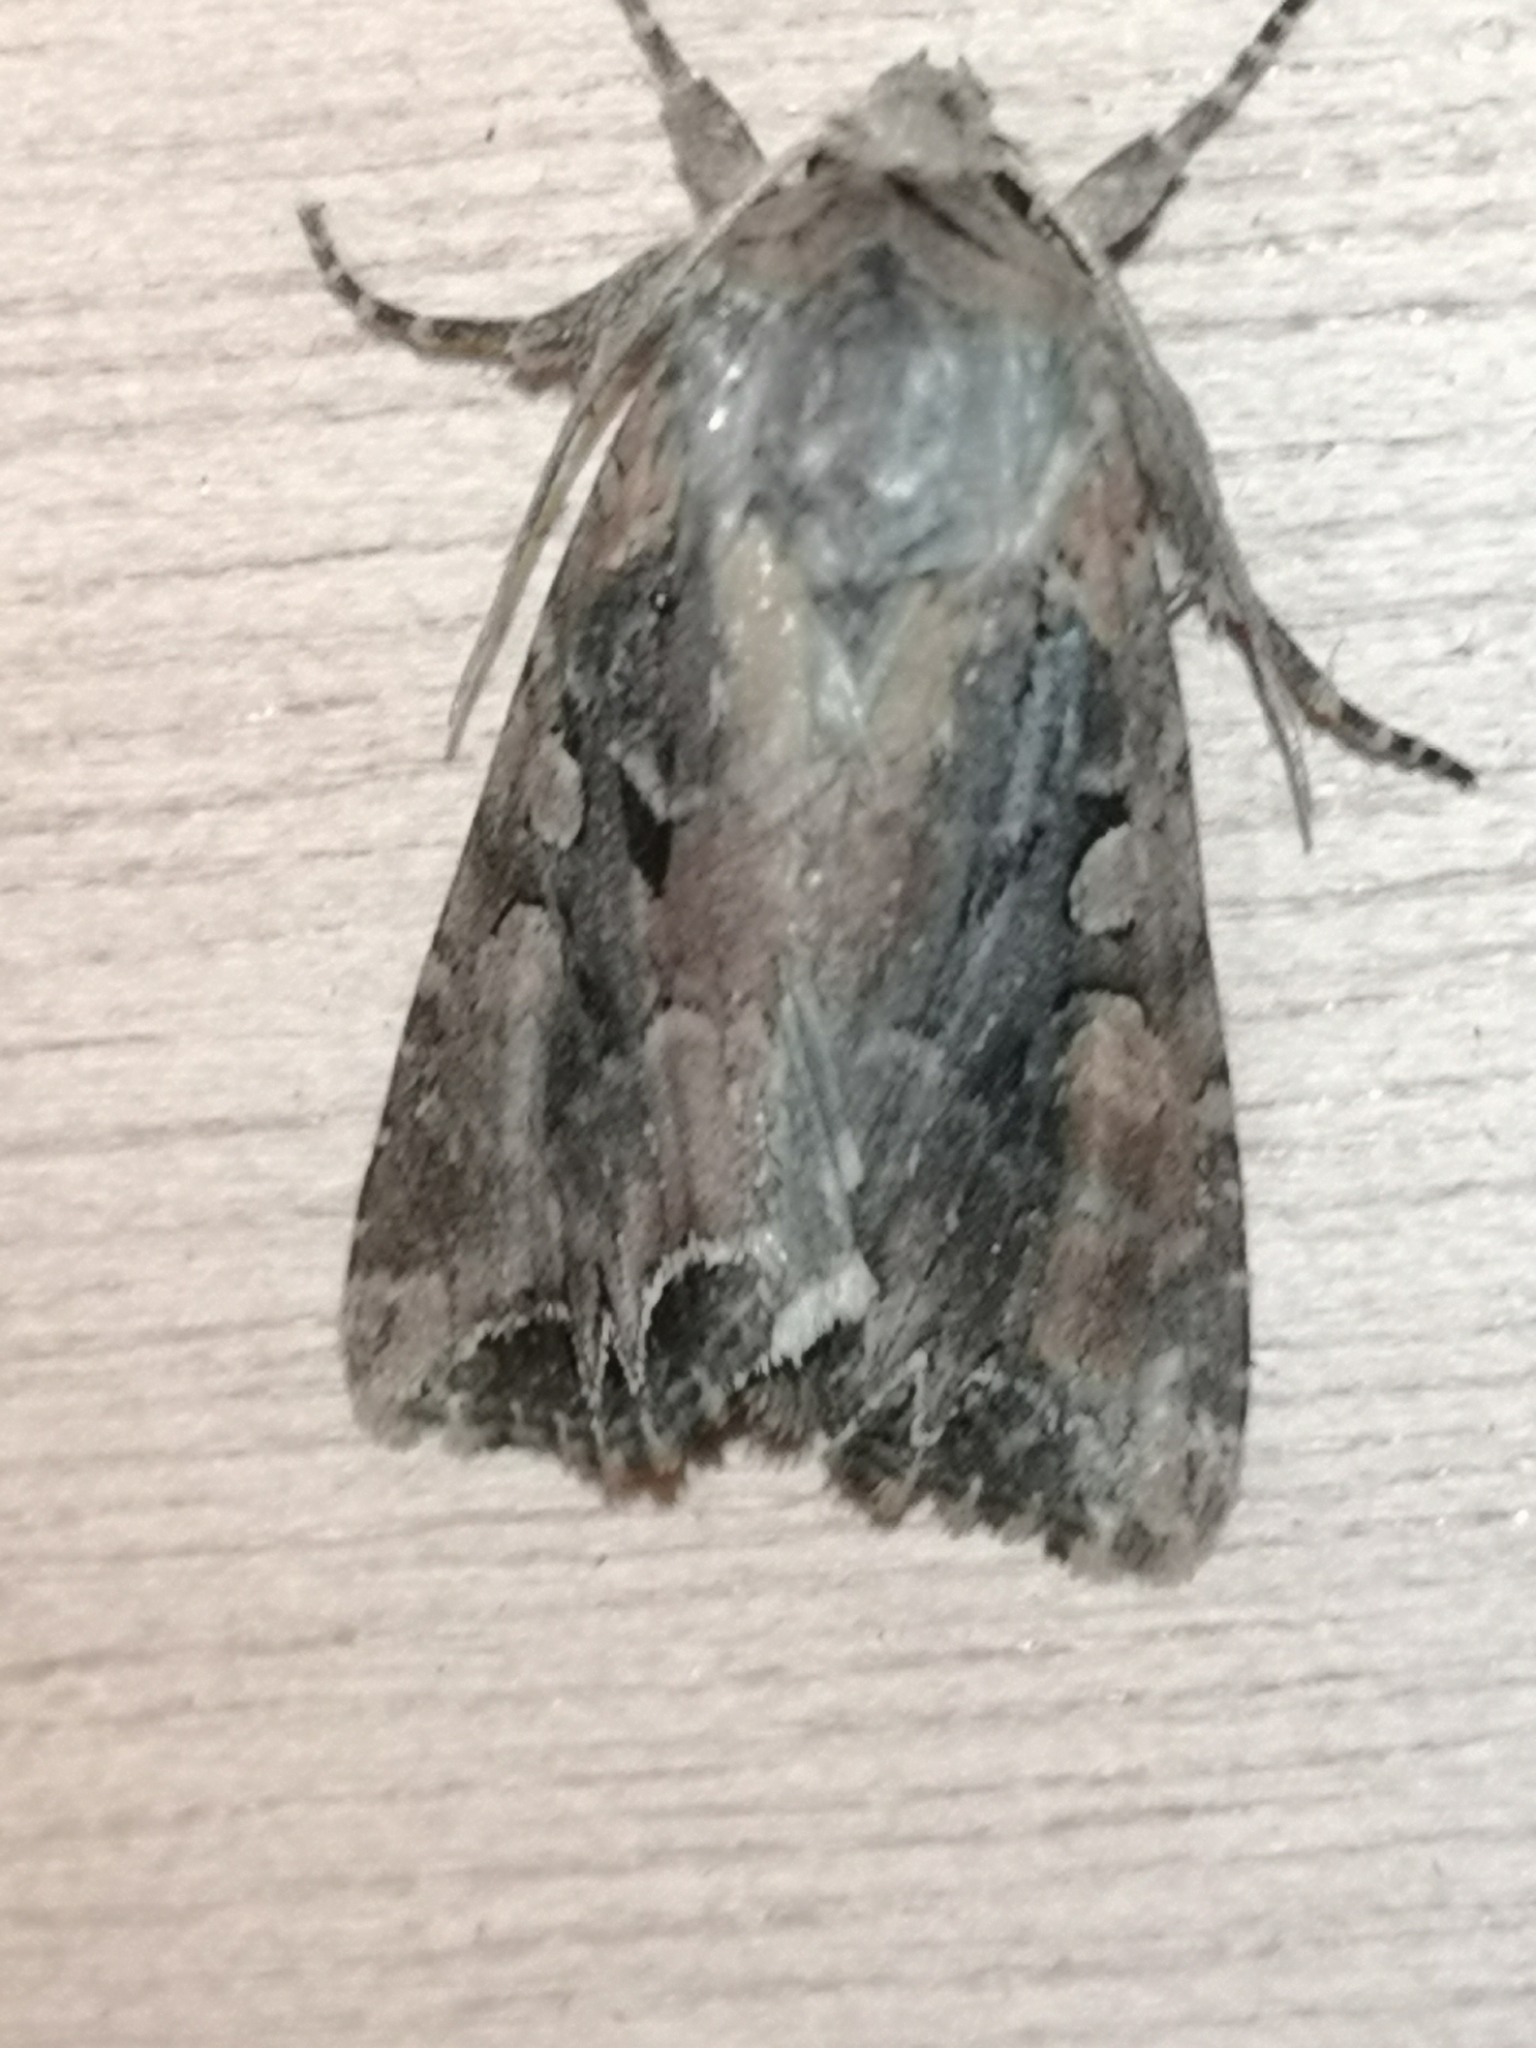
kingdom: Animalia
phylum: Arthropoda
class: Insecta
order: Lepidoptera
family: Noctuidae
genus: Lacanobia
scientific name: Lacanobia suasa
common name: Dog's tooth
